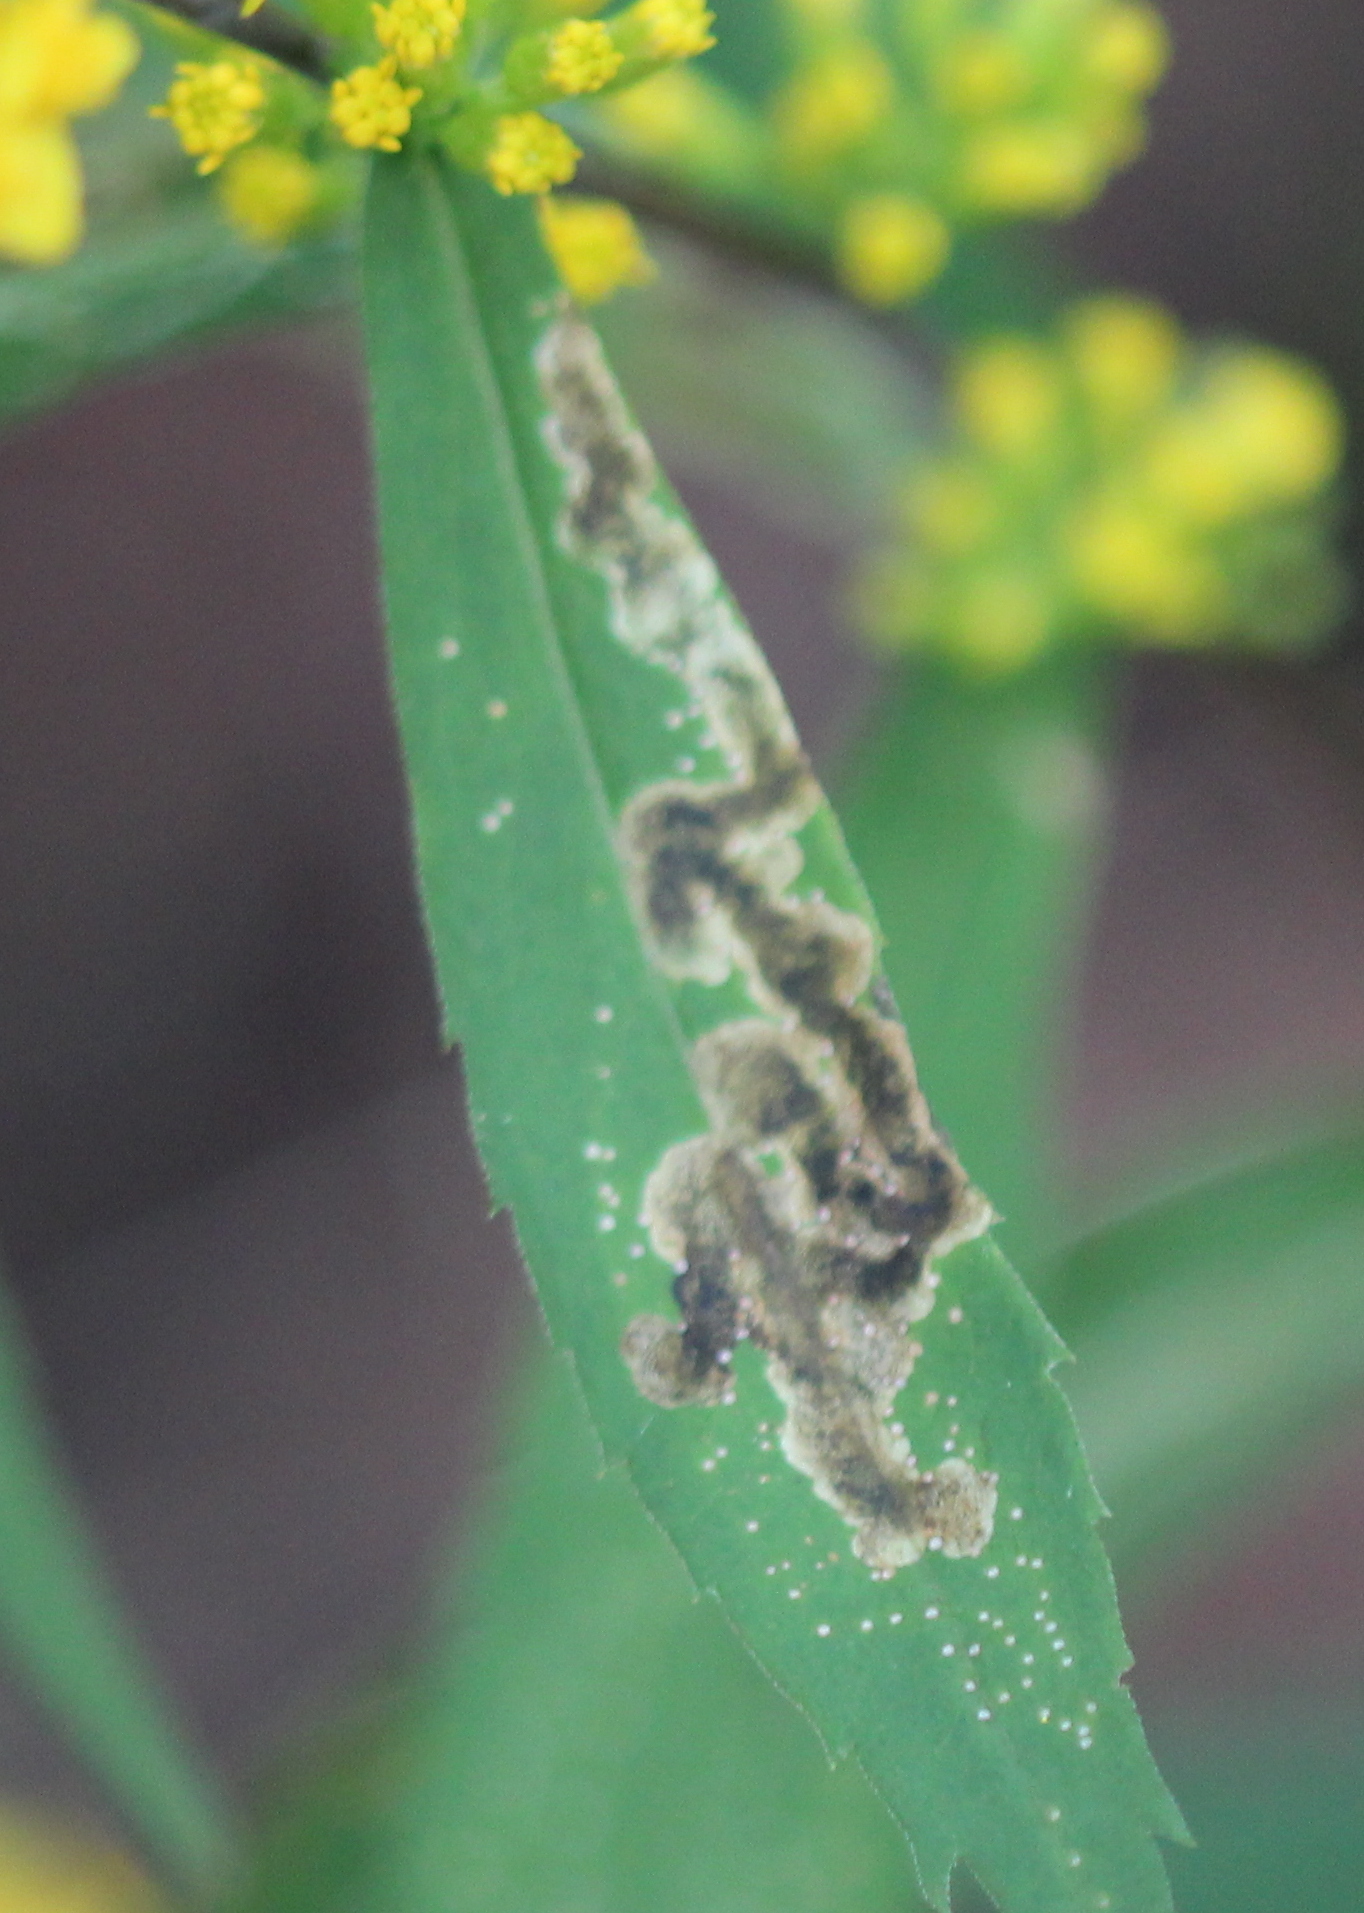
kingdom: Animalia
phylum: Arthropoda
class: Insecta
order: Diptera
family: Agromyzidae
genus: Nemorimyza
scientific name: Nemorimyza posticata
